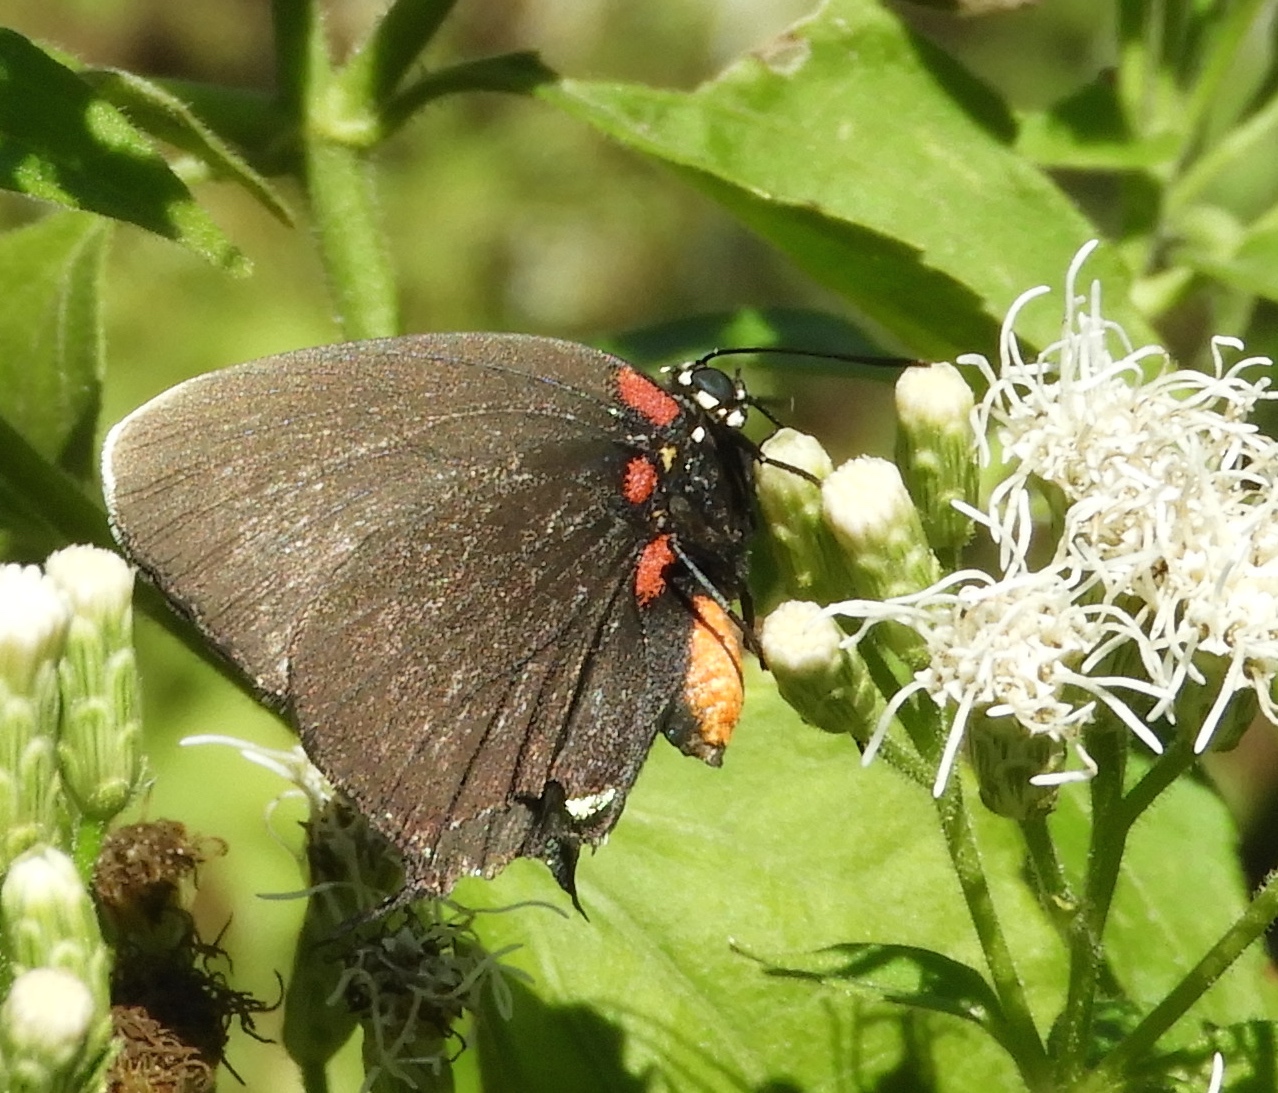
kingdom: Animalia
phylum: Arthropoda
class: Insecta
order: Lepidoptera
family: Lycaenidae
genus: Atlides
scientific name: Atlides halesus
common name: Great purple hairstreak
